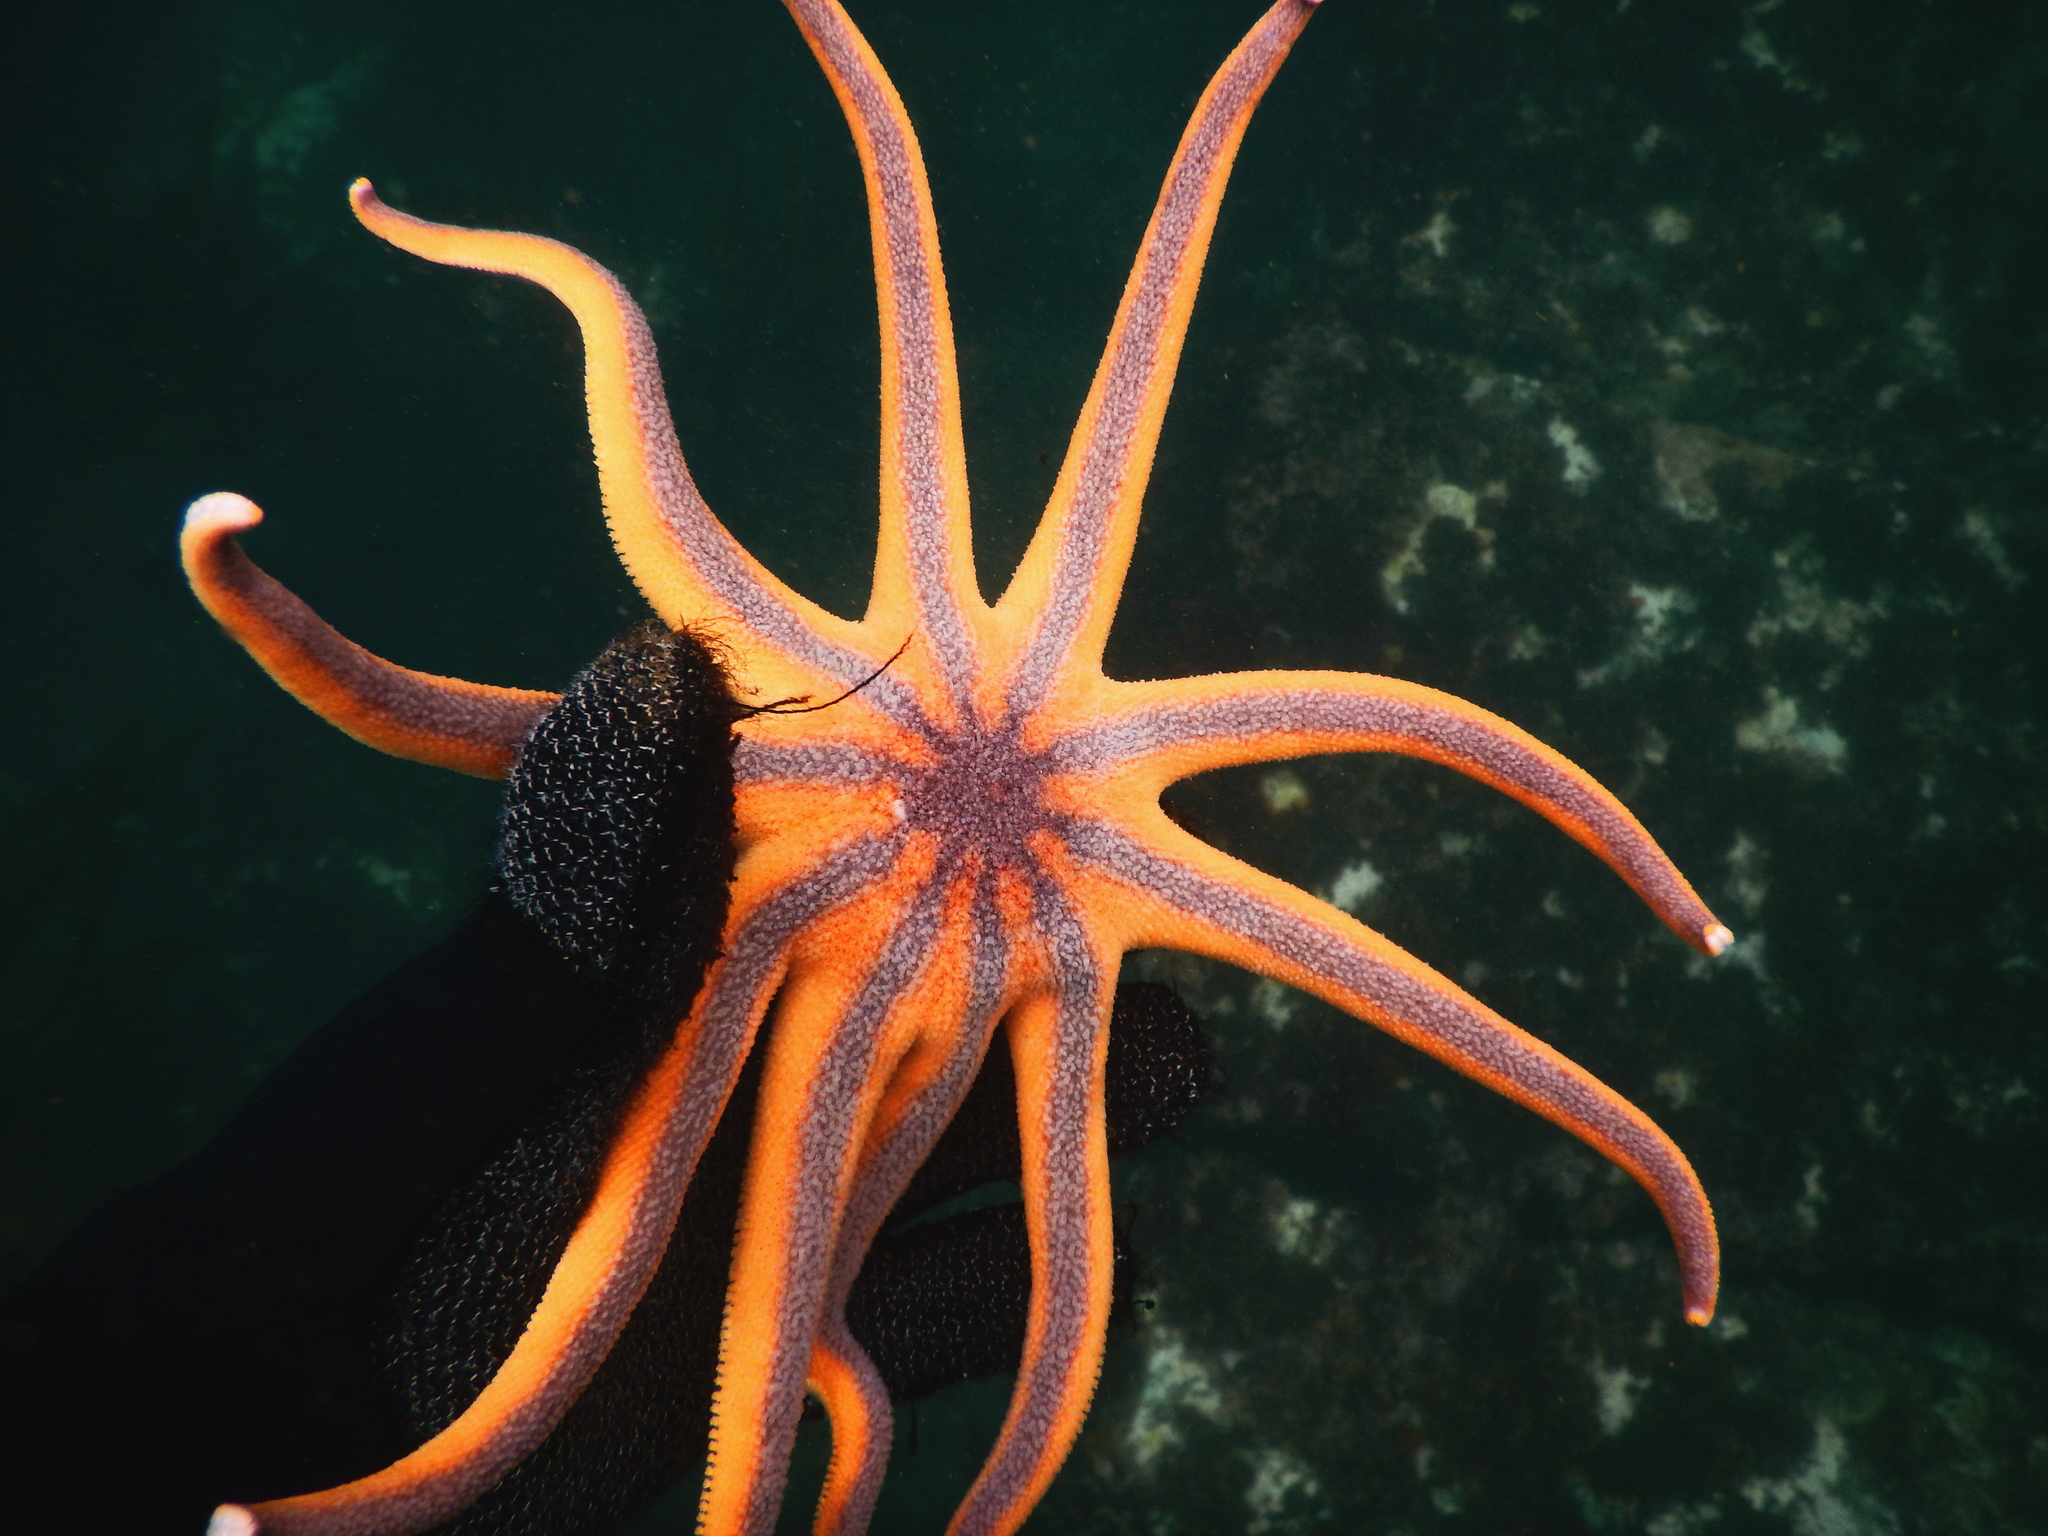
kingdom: Animalia
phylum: Echinodermata
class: Asteroidea
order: Valvatida
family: Solasteridae
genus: Solaster
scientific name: Solaster stimpsoni
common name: Orange sun star
